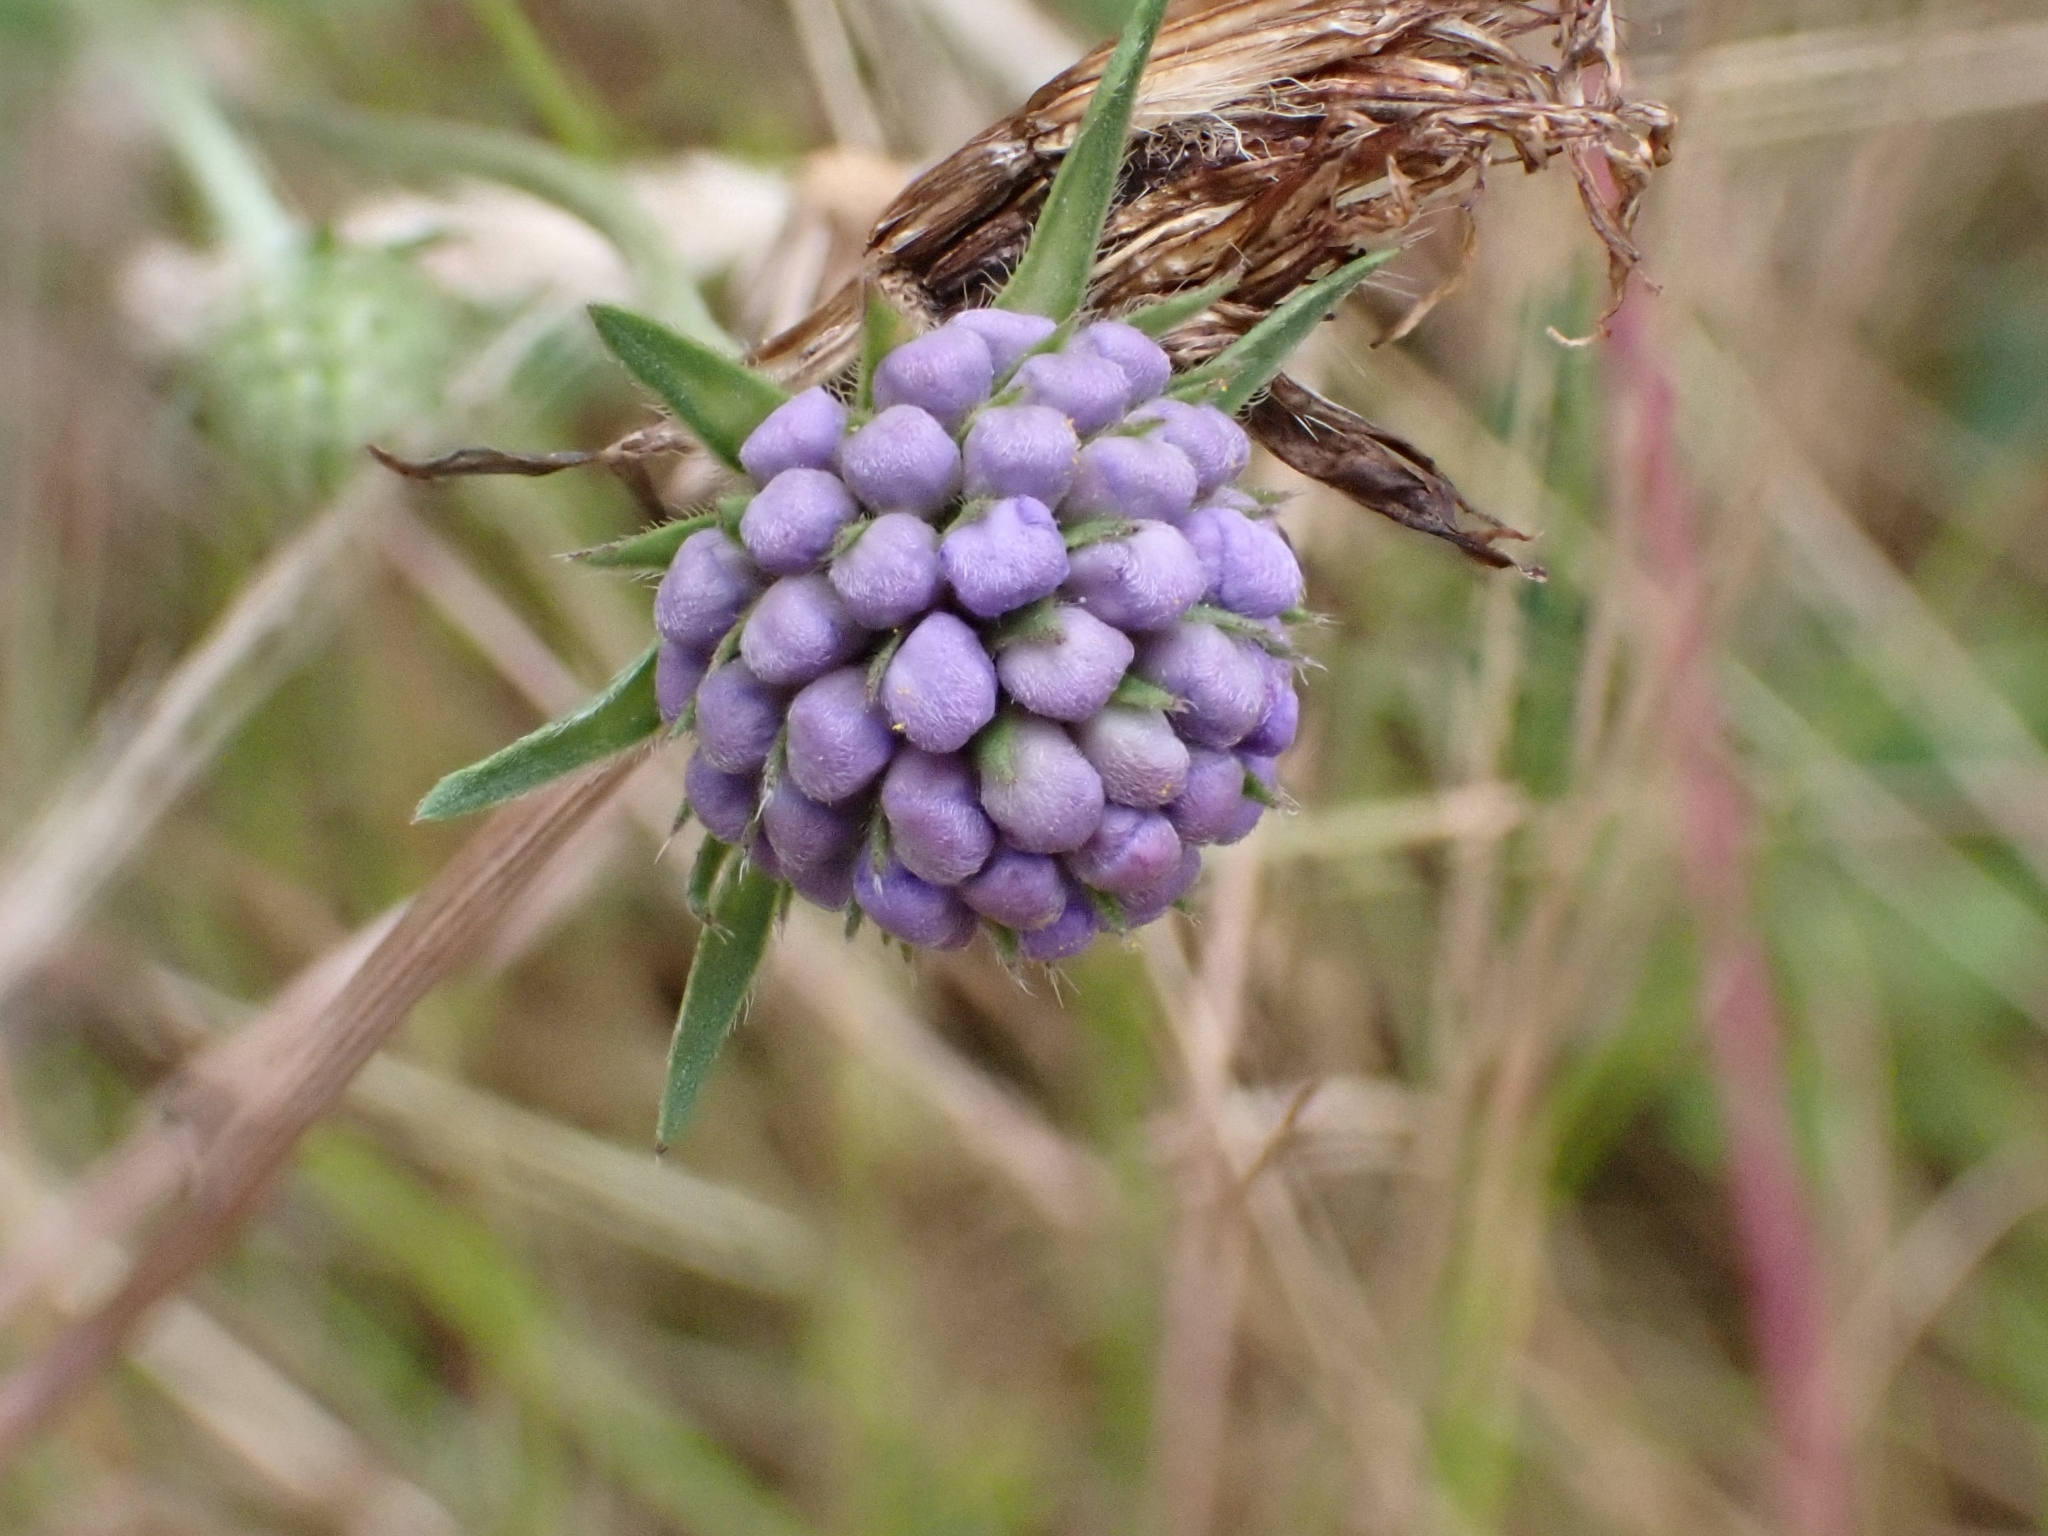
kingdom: Plantae
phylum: Tracheophyta
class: Magnoliopsida
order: Dipsacales
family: Caprifoliaceae
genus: Succisa
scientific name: Succisa pratensis
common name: Devil's-bit
